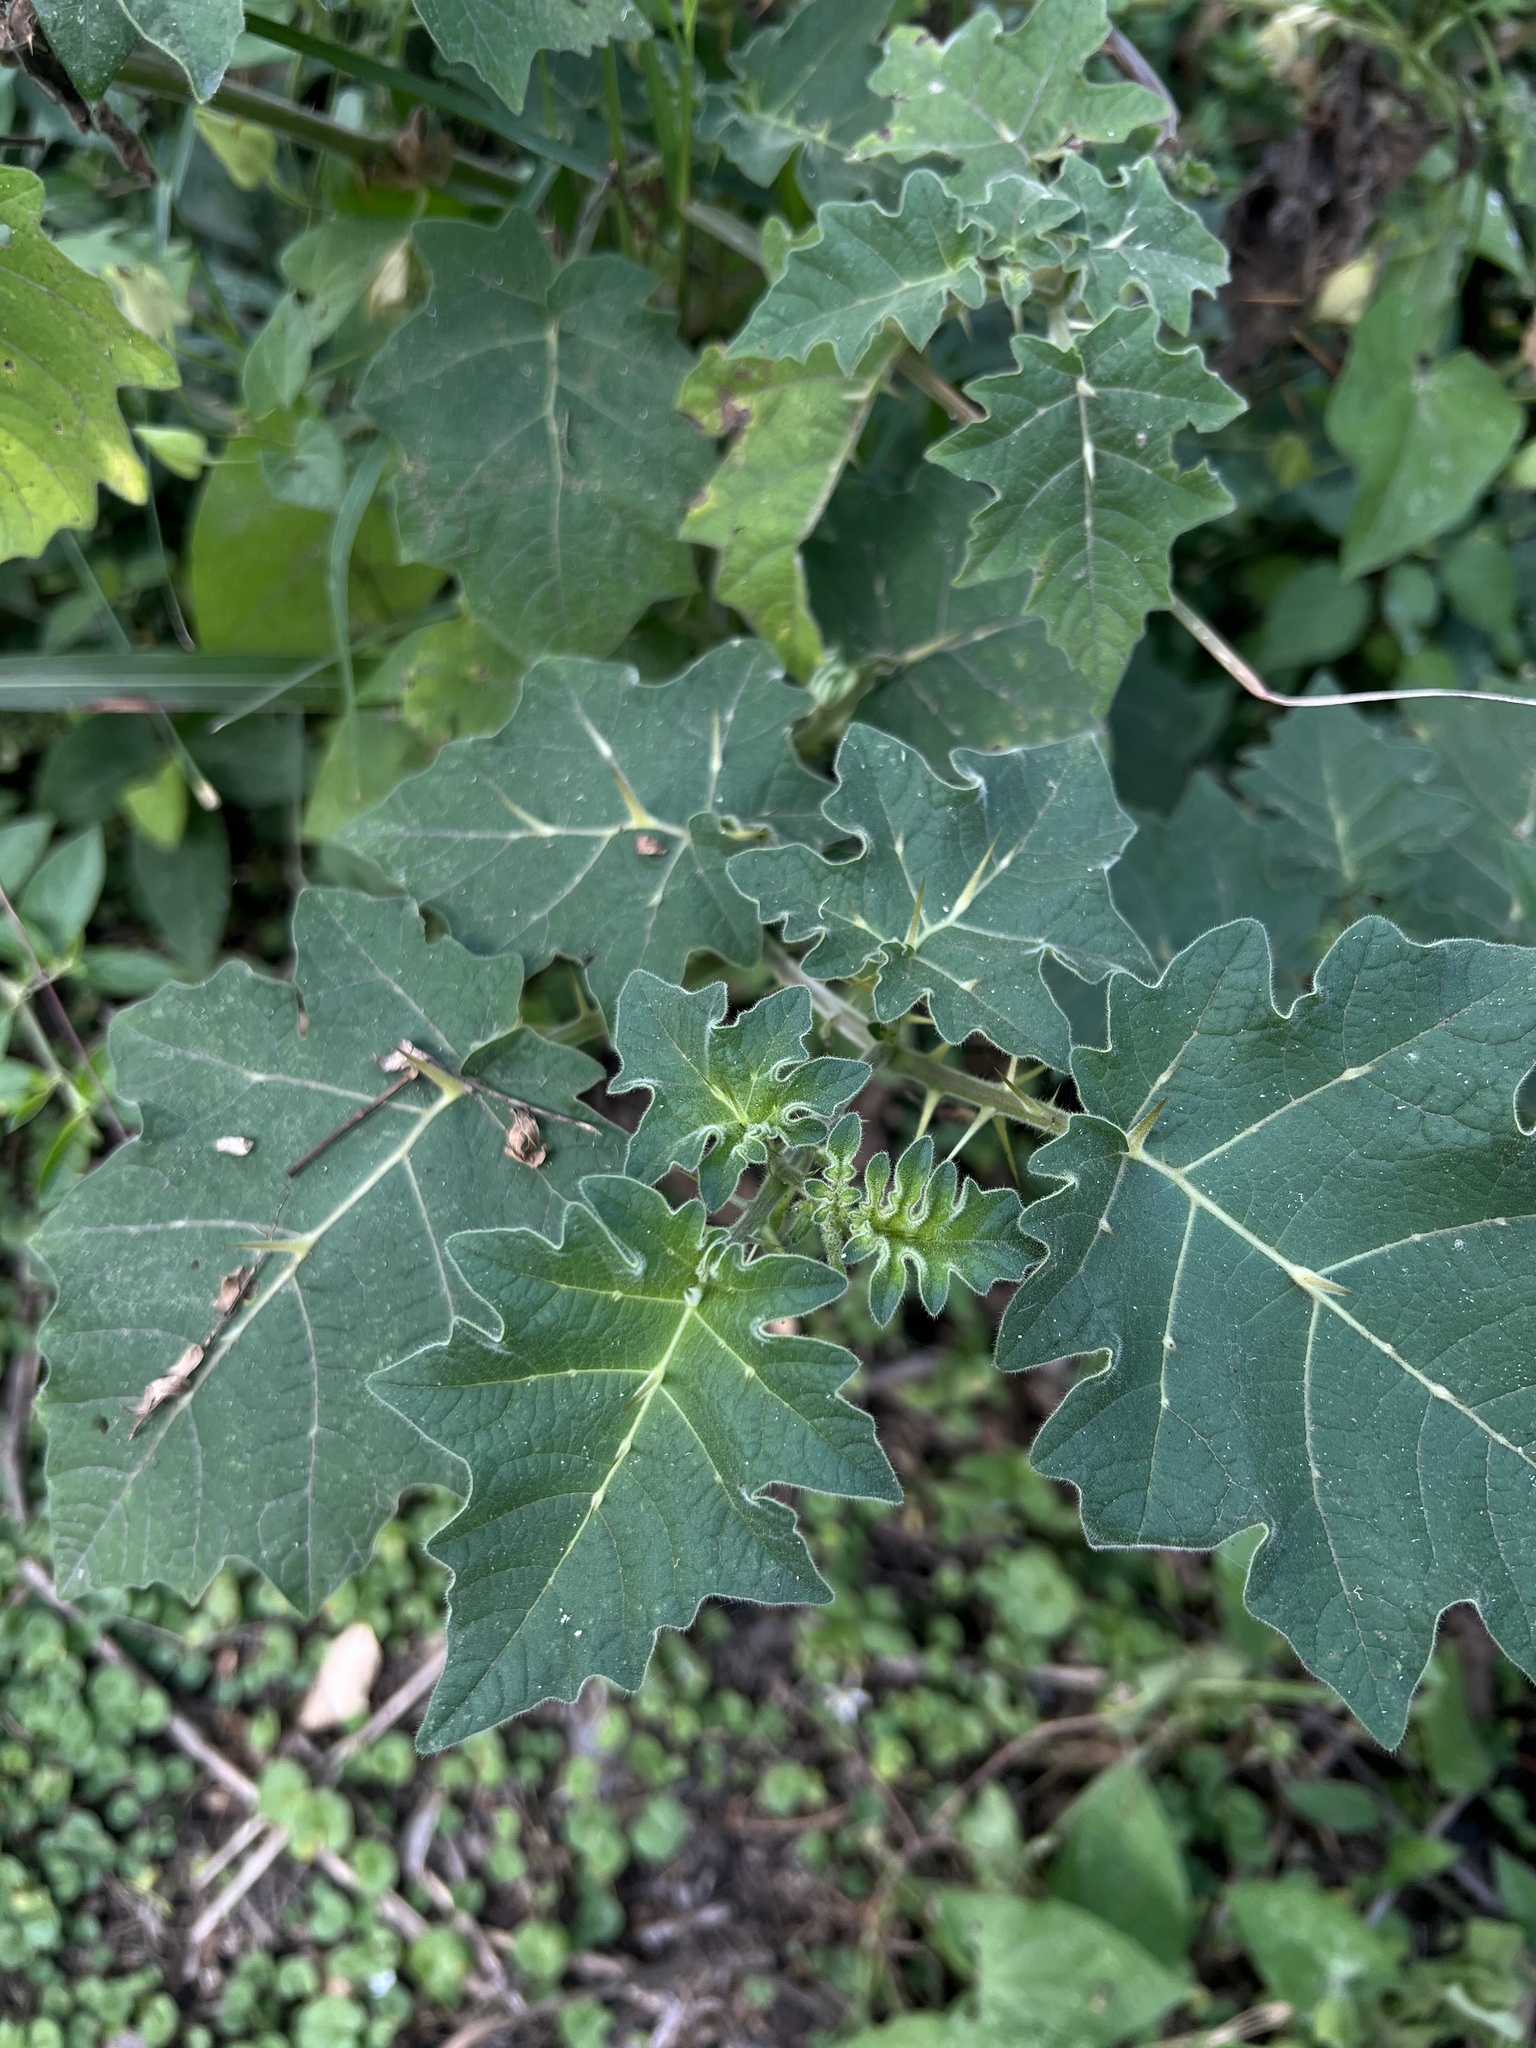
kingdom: Plantae
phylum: Tracheophyta
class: Magnoliopsida
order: Solanales
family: Solanaceae
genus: Solanum
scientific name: Solanum viarum
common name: Tropical soda apple
